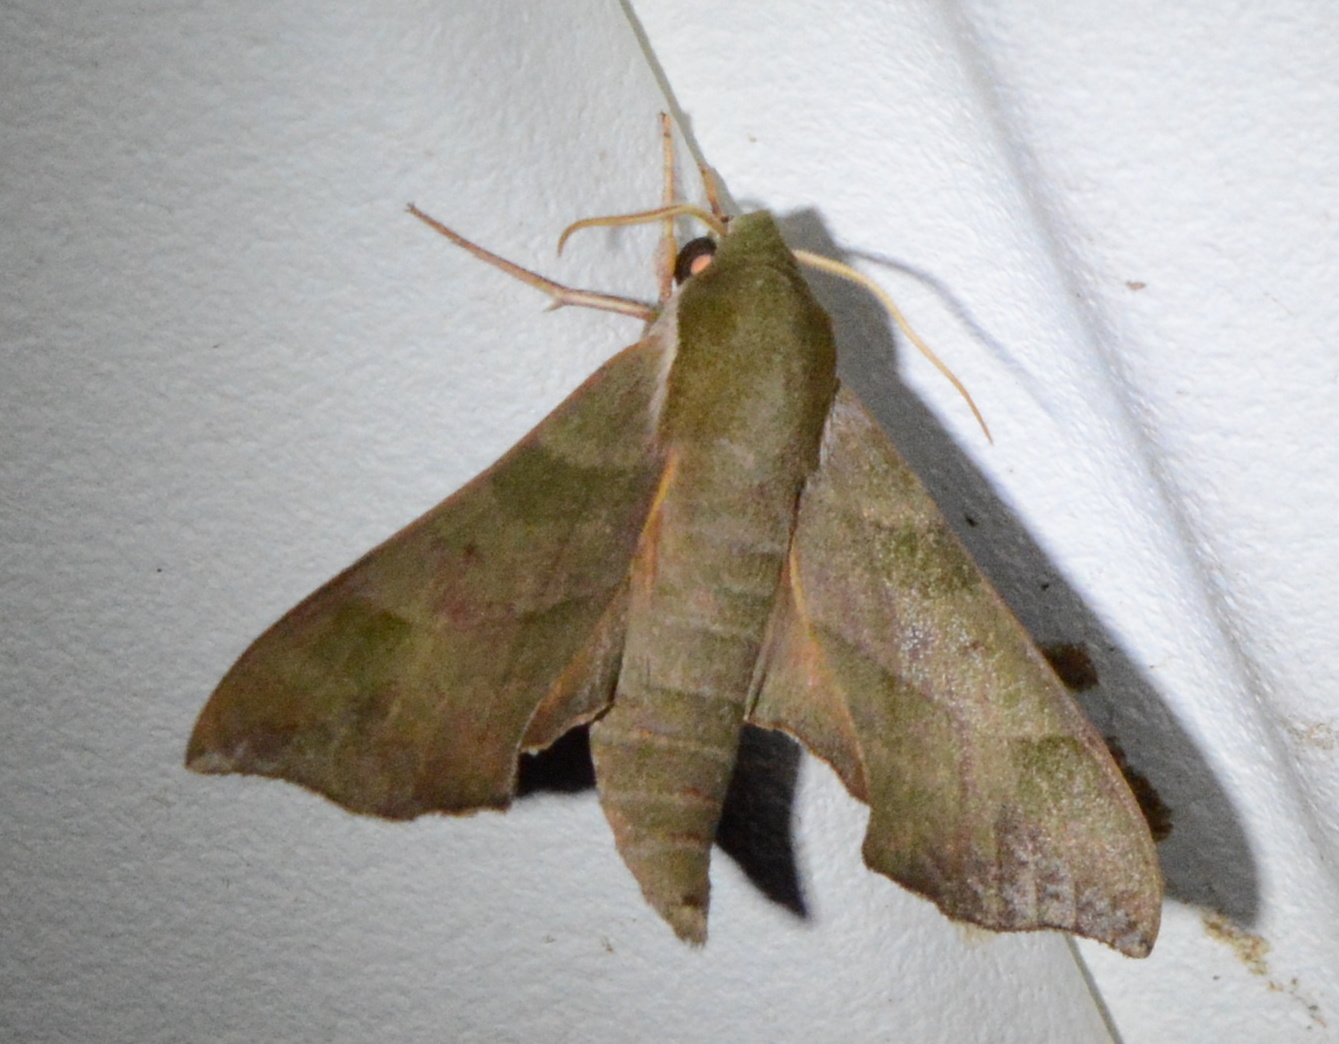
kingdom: Animalia
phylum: Arthropoda
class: Insecta
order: Lepidoptera
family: Sphingidae
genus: Darapsa
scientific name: Darapsa myron
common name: Hog sphinx
